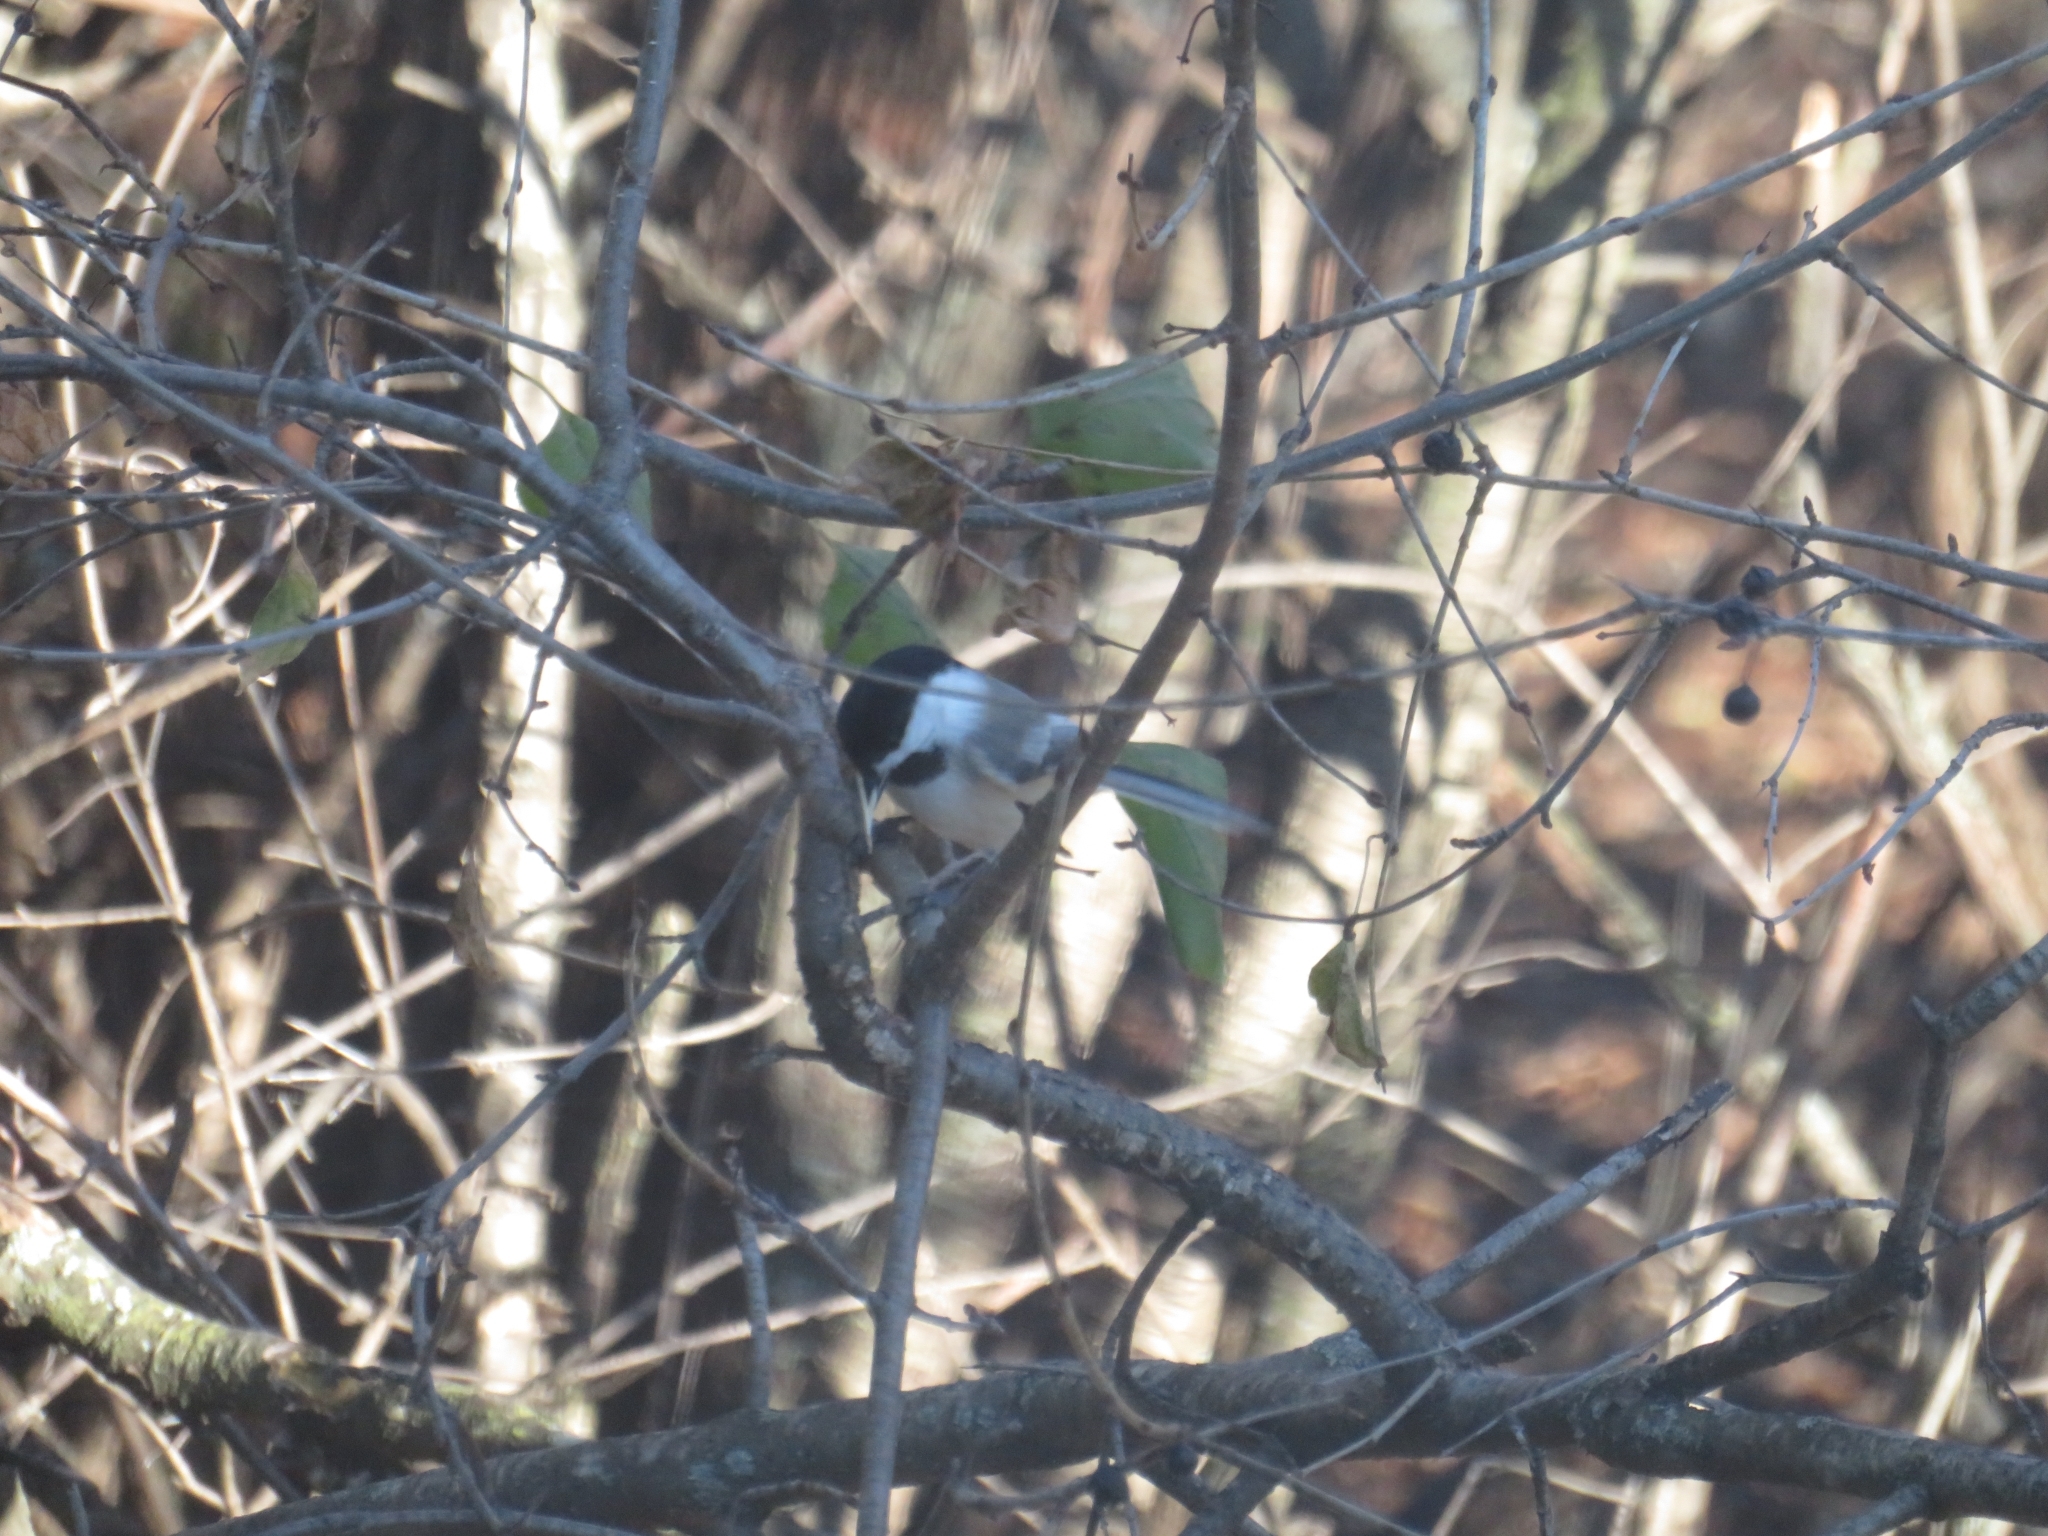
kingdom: Animalia
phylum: Chordata
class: Aves
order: Passeriformes
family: Paridae
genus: Poecile
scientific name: Poecile atricapillus
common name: Black-capped chickadee
